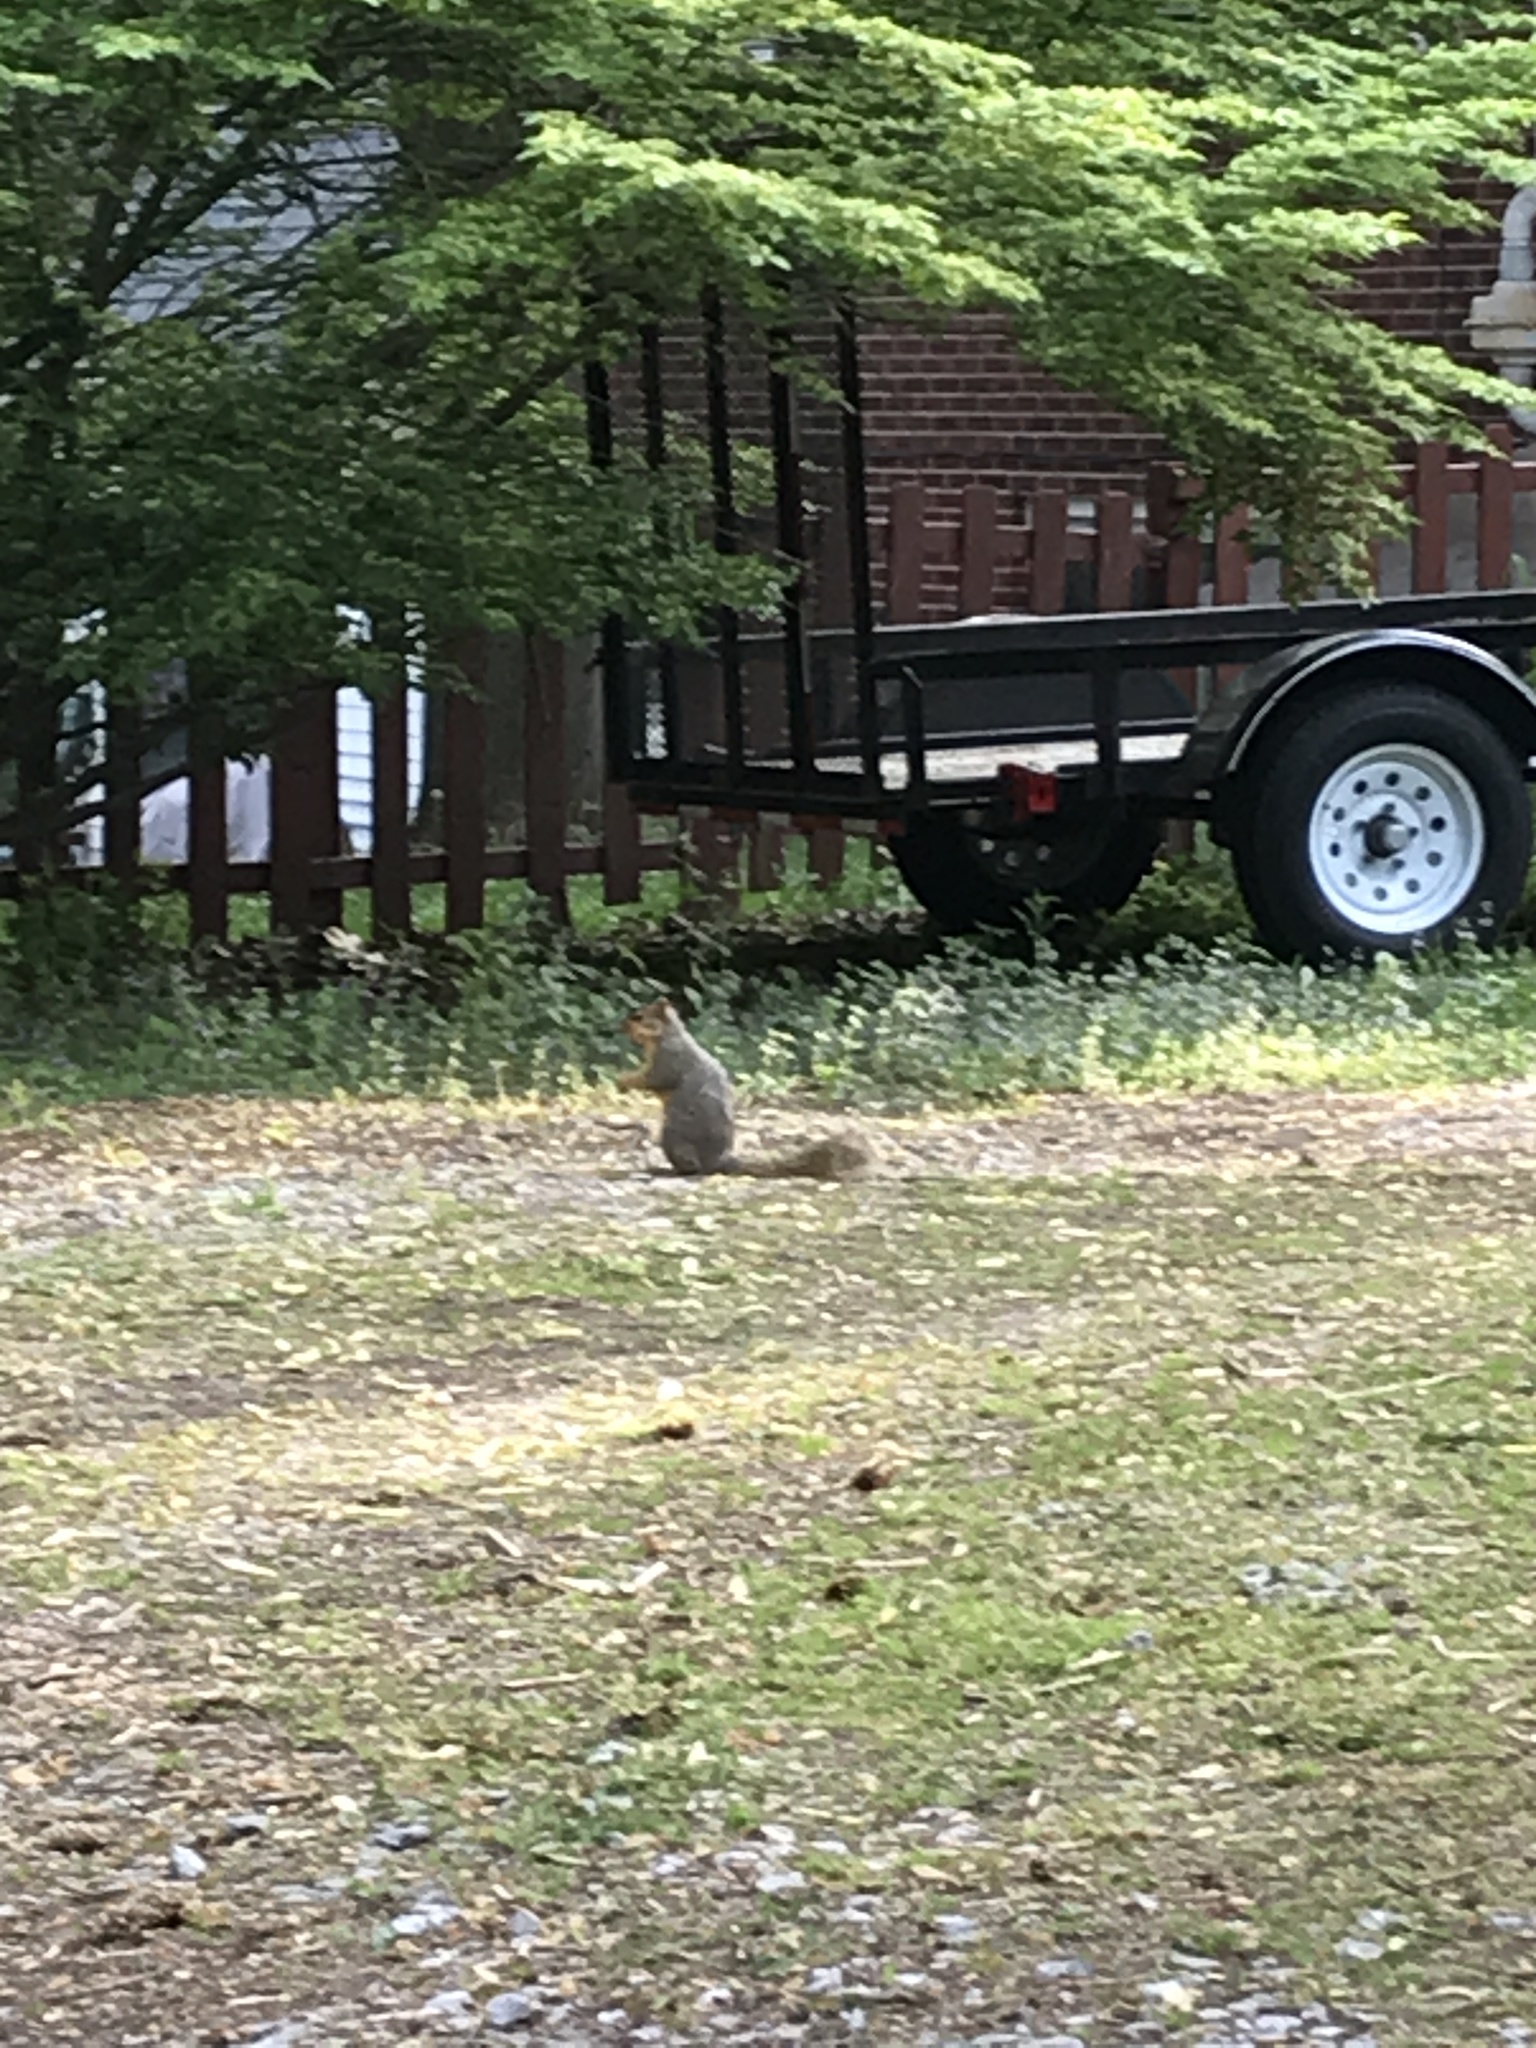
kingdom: Animalia
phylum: Chordata
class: Mammalia
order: Rodentia
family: Sciuridae
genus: Sciurus
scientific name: Sciurus niger
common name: Fox squirrel
